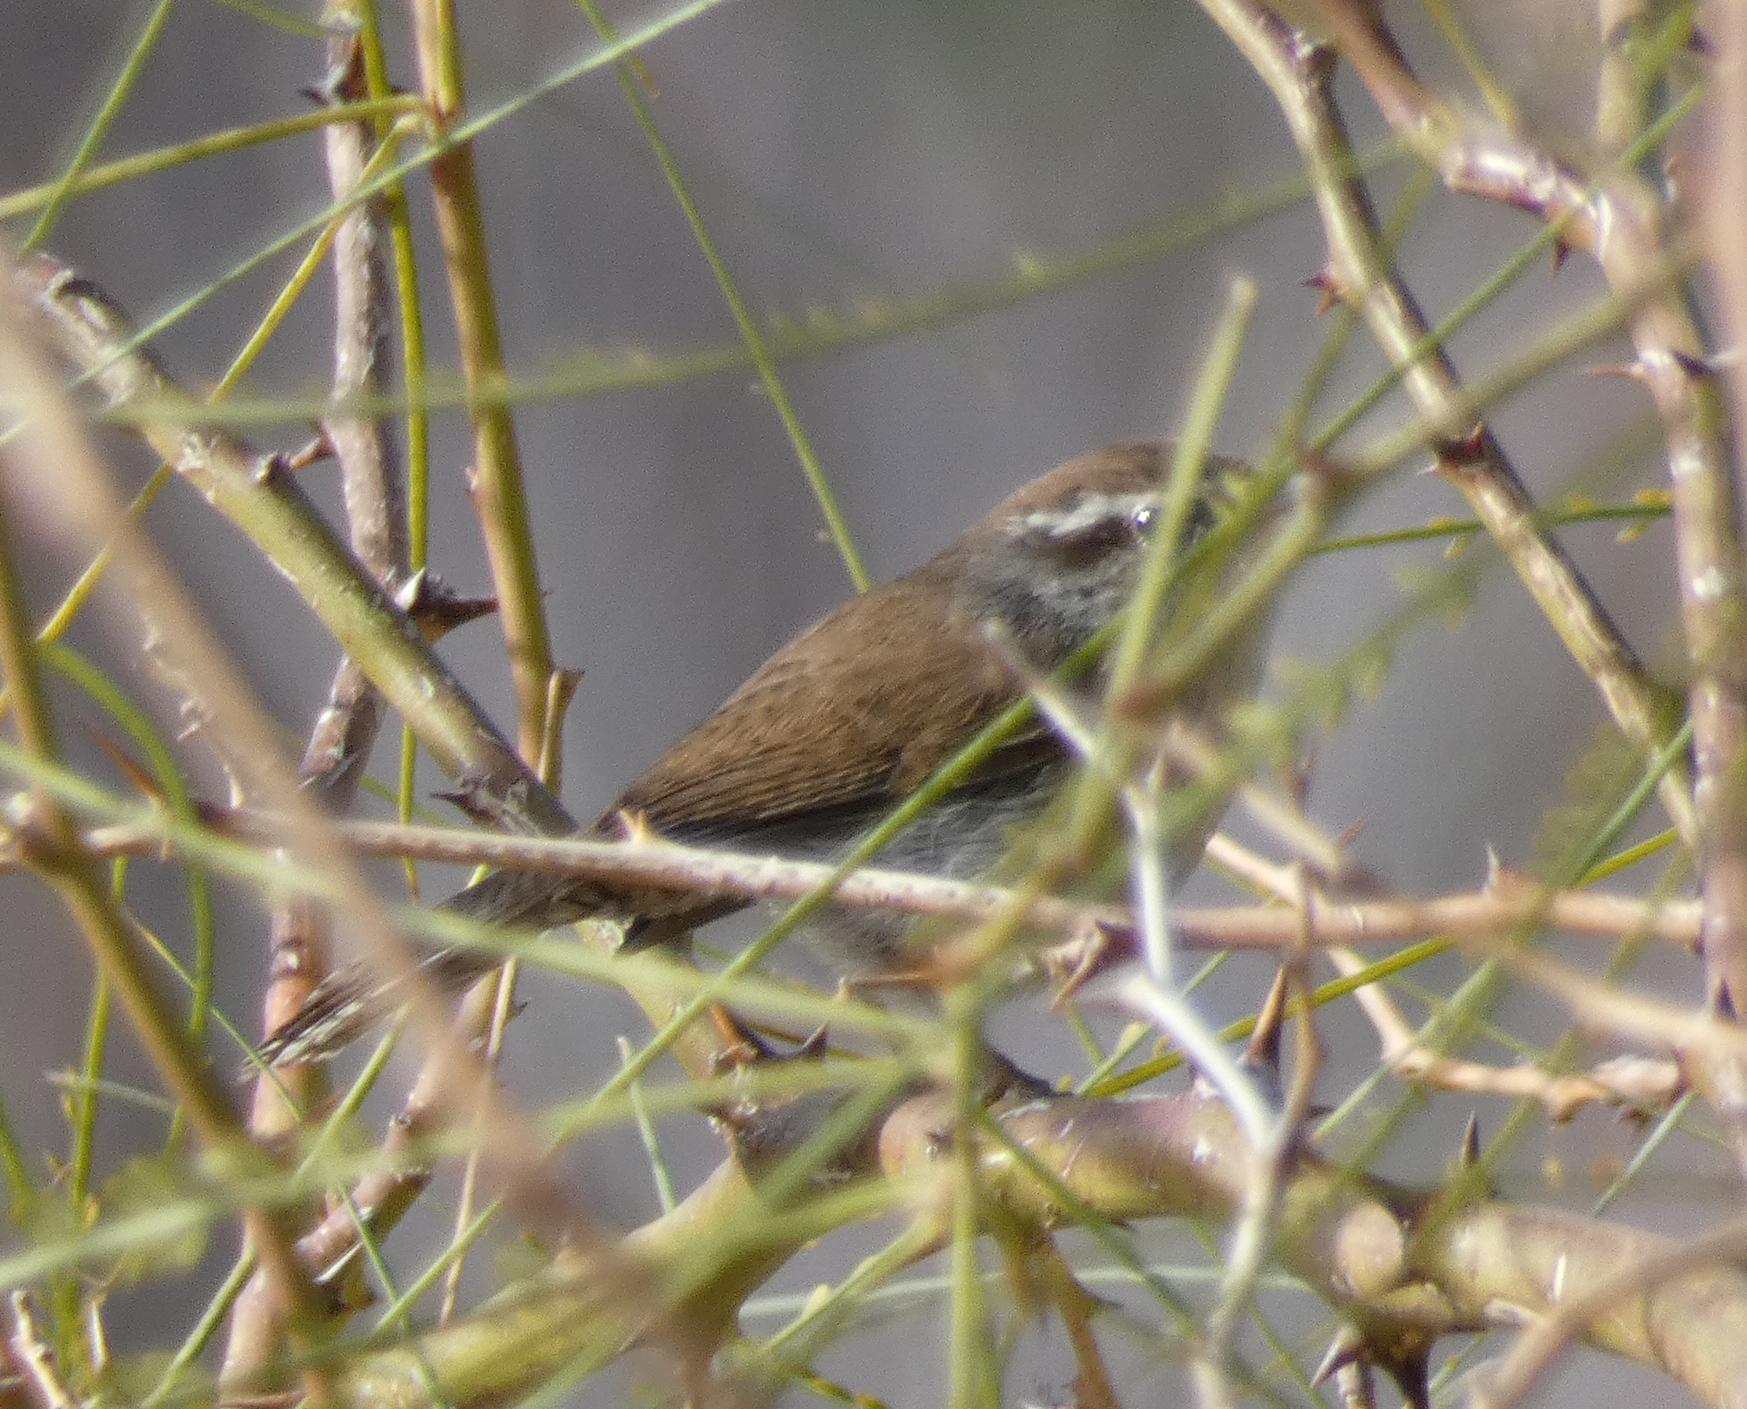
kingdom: Animalia
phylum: Chordata
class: Aves
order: Passeriformes
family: Troglodytidae
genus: Thryomanes
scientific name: Thryomanes bewickii
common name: Bewick's wren
